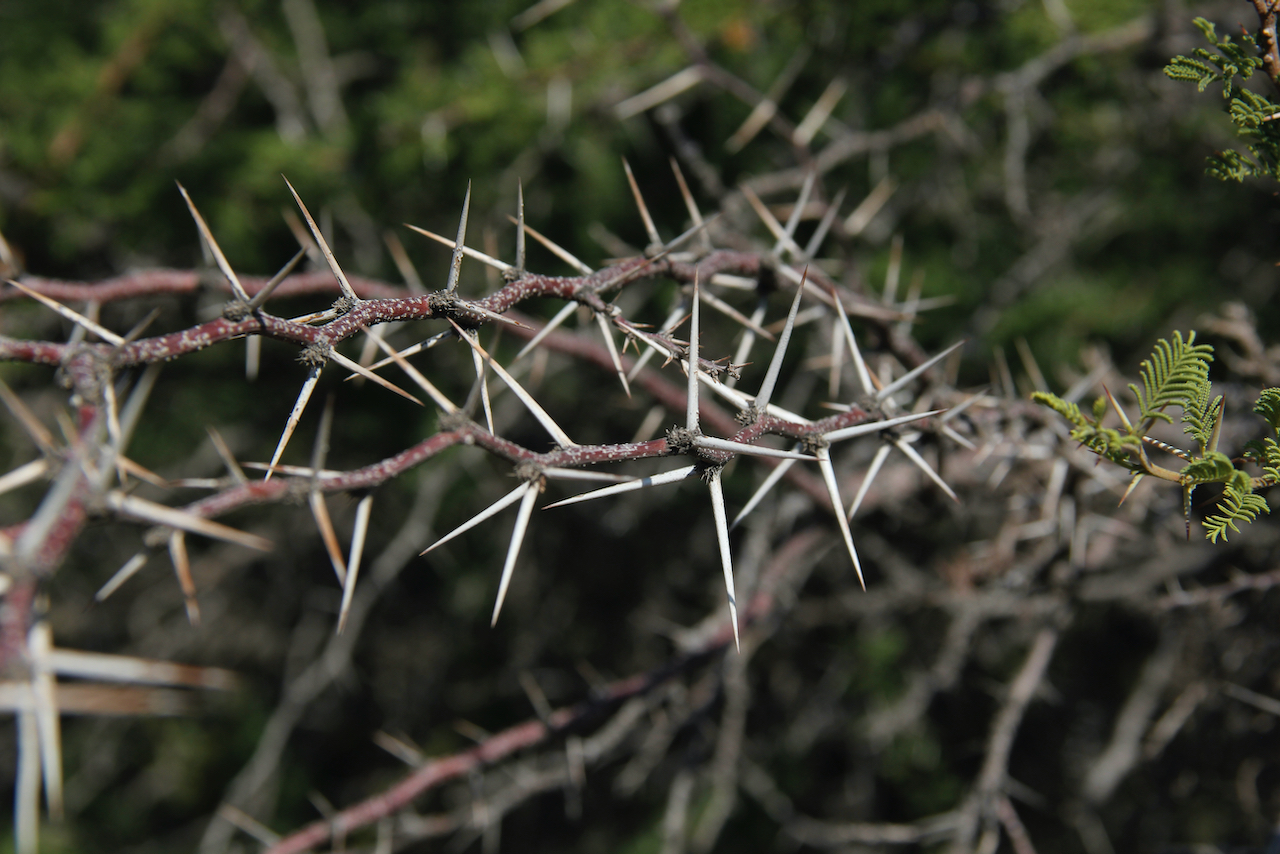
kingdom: Plantae
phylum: Tracheophyta
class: Magnoliopsida
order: Fabales
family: Fabaceae
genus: Vachellia
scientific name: Vachellia caven
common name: Roman cassie
